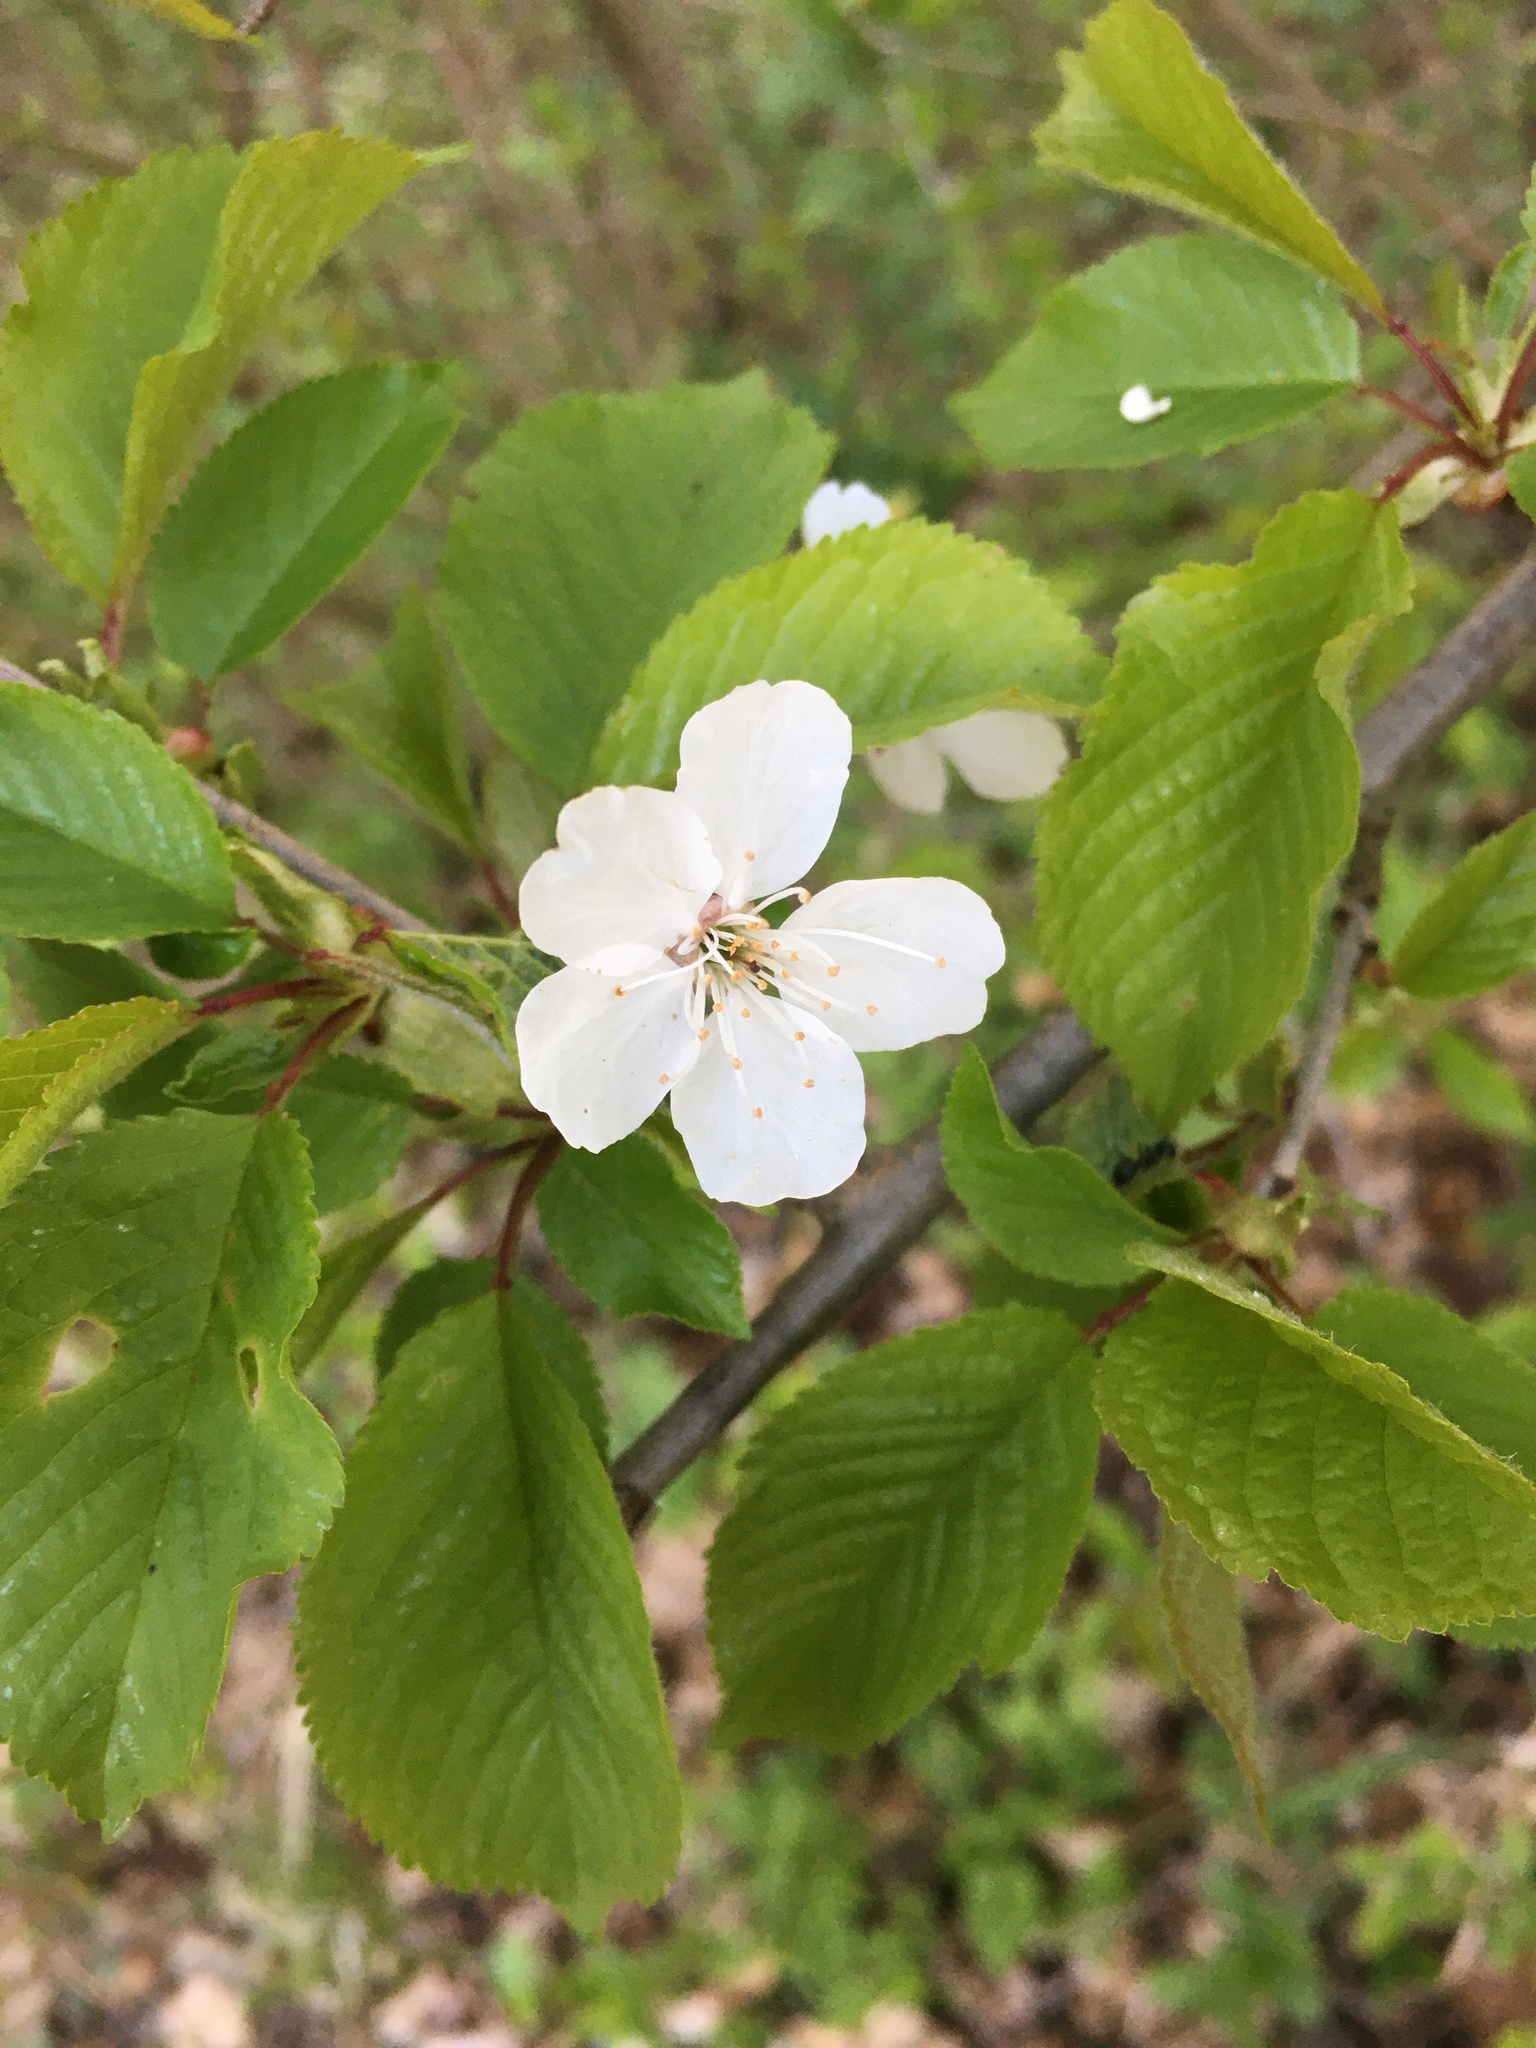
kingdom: Plantae
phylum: Tracheophyta
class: Magnoliopsida
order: Rosales
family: Rosaceae
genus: Prunus
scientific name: Prunus avium
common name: Sweet cherry
